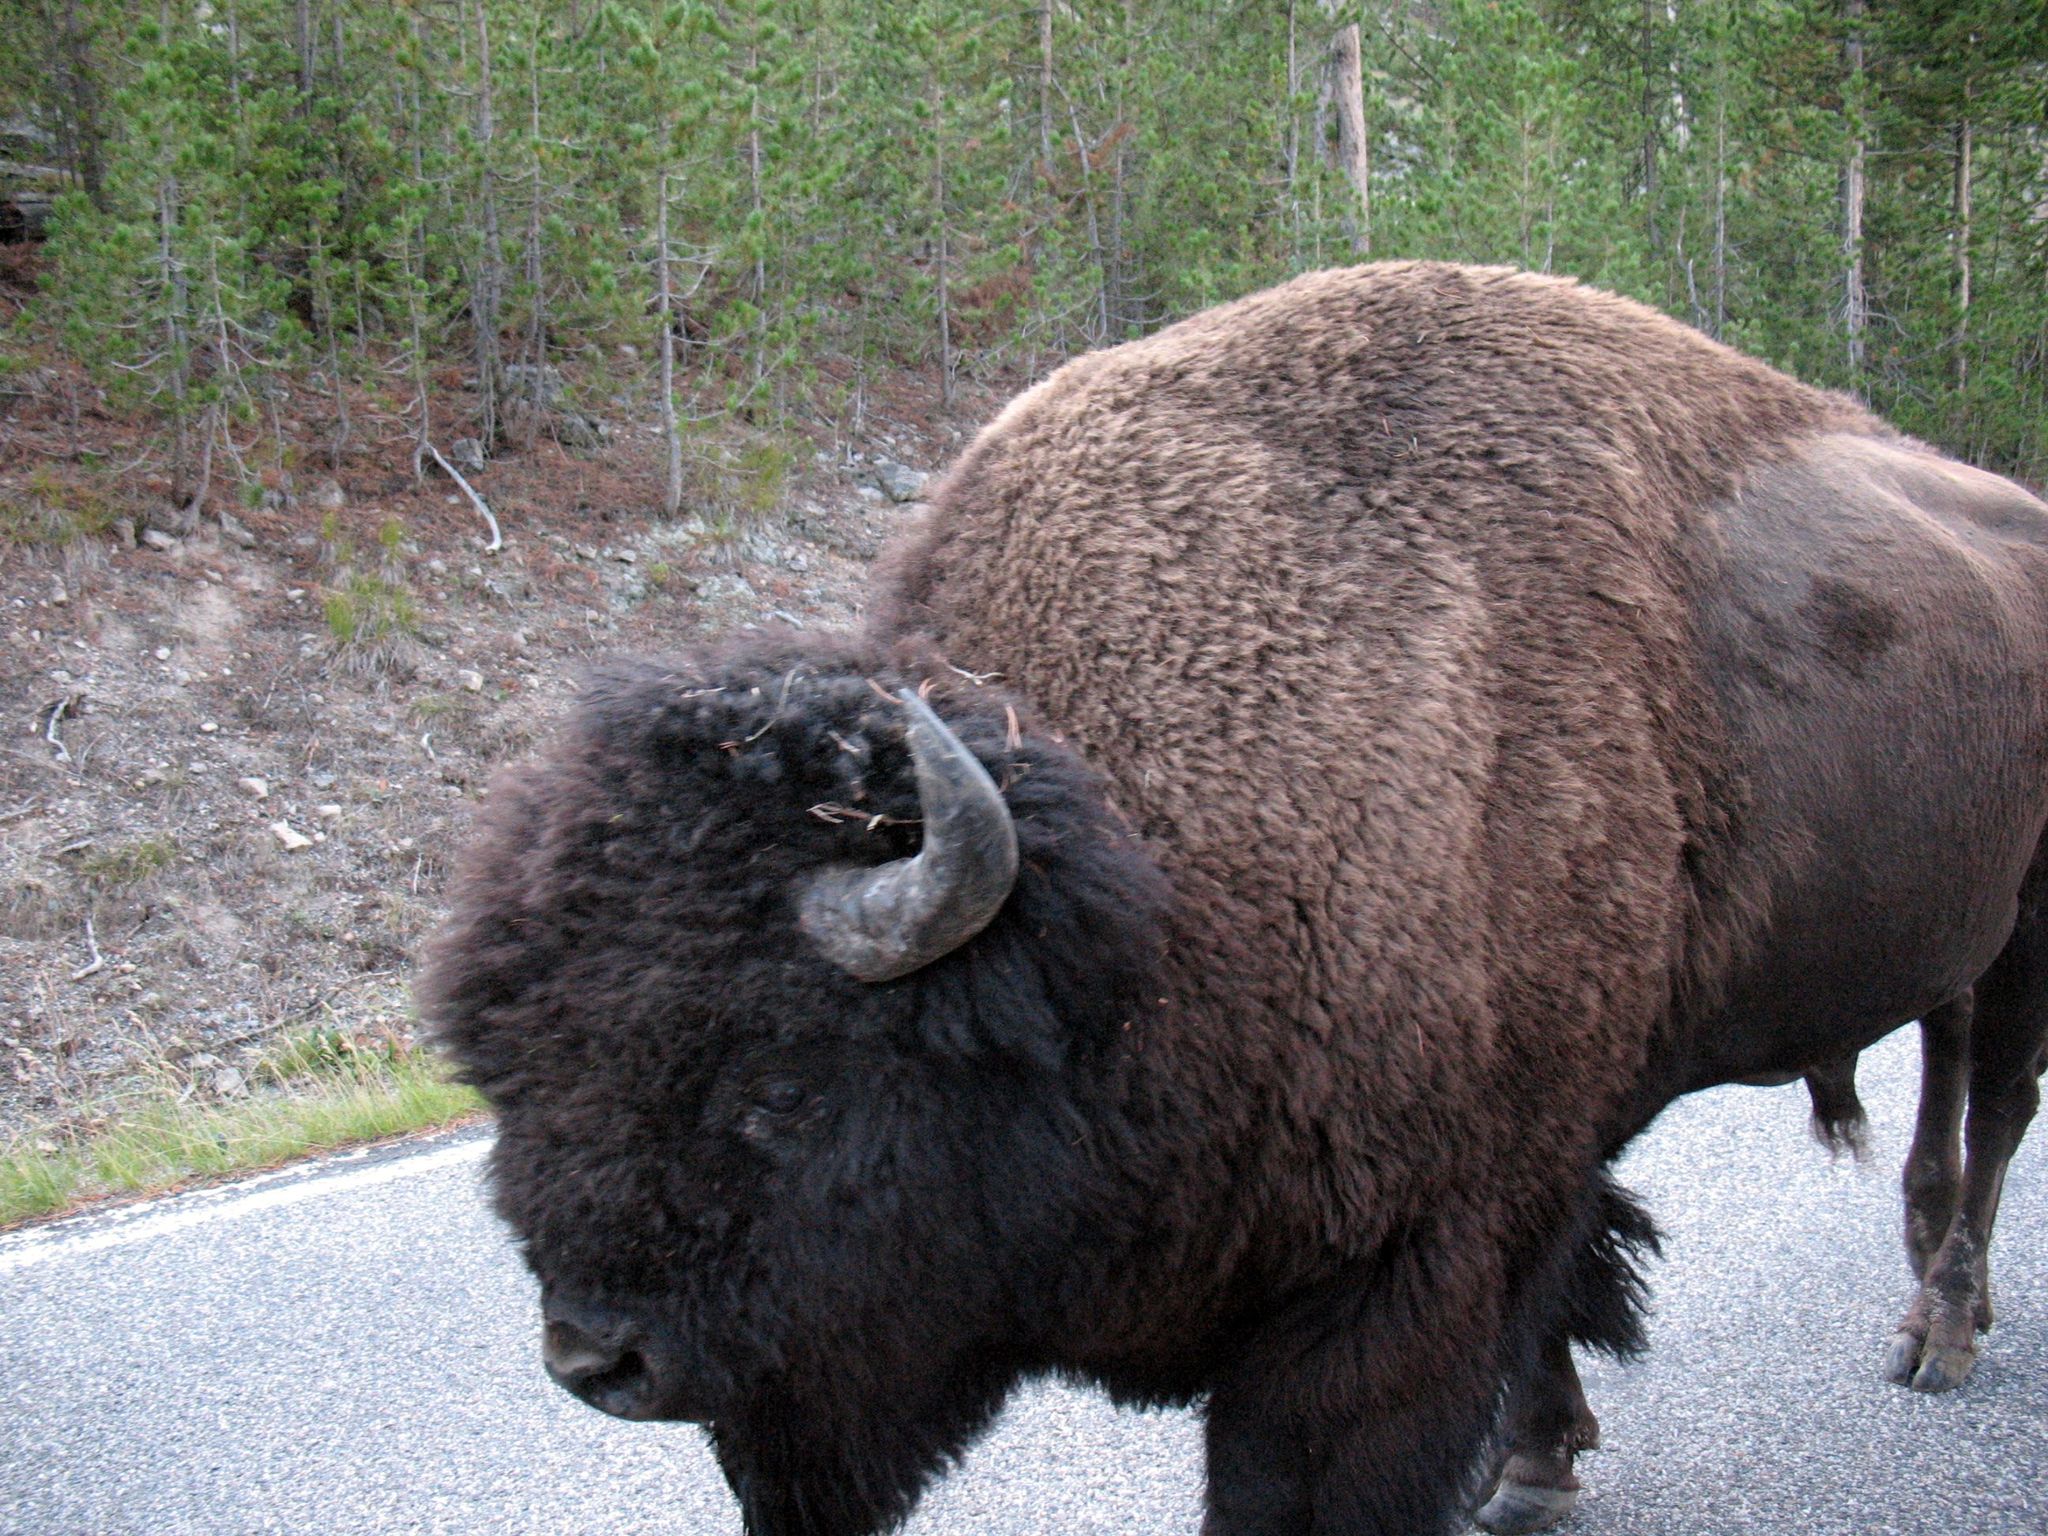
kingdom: Animalia
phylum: Chordata
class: Mammalia
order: Artiodactyla
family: Bovidae
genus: Bison
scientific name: Bison bison
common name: American bison
